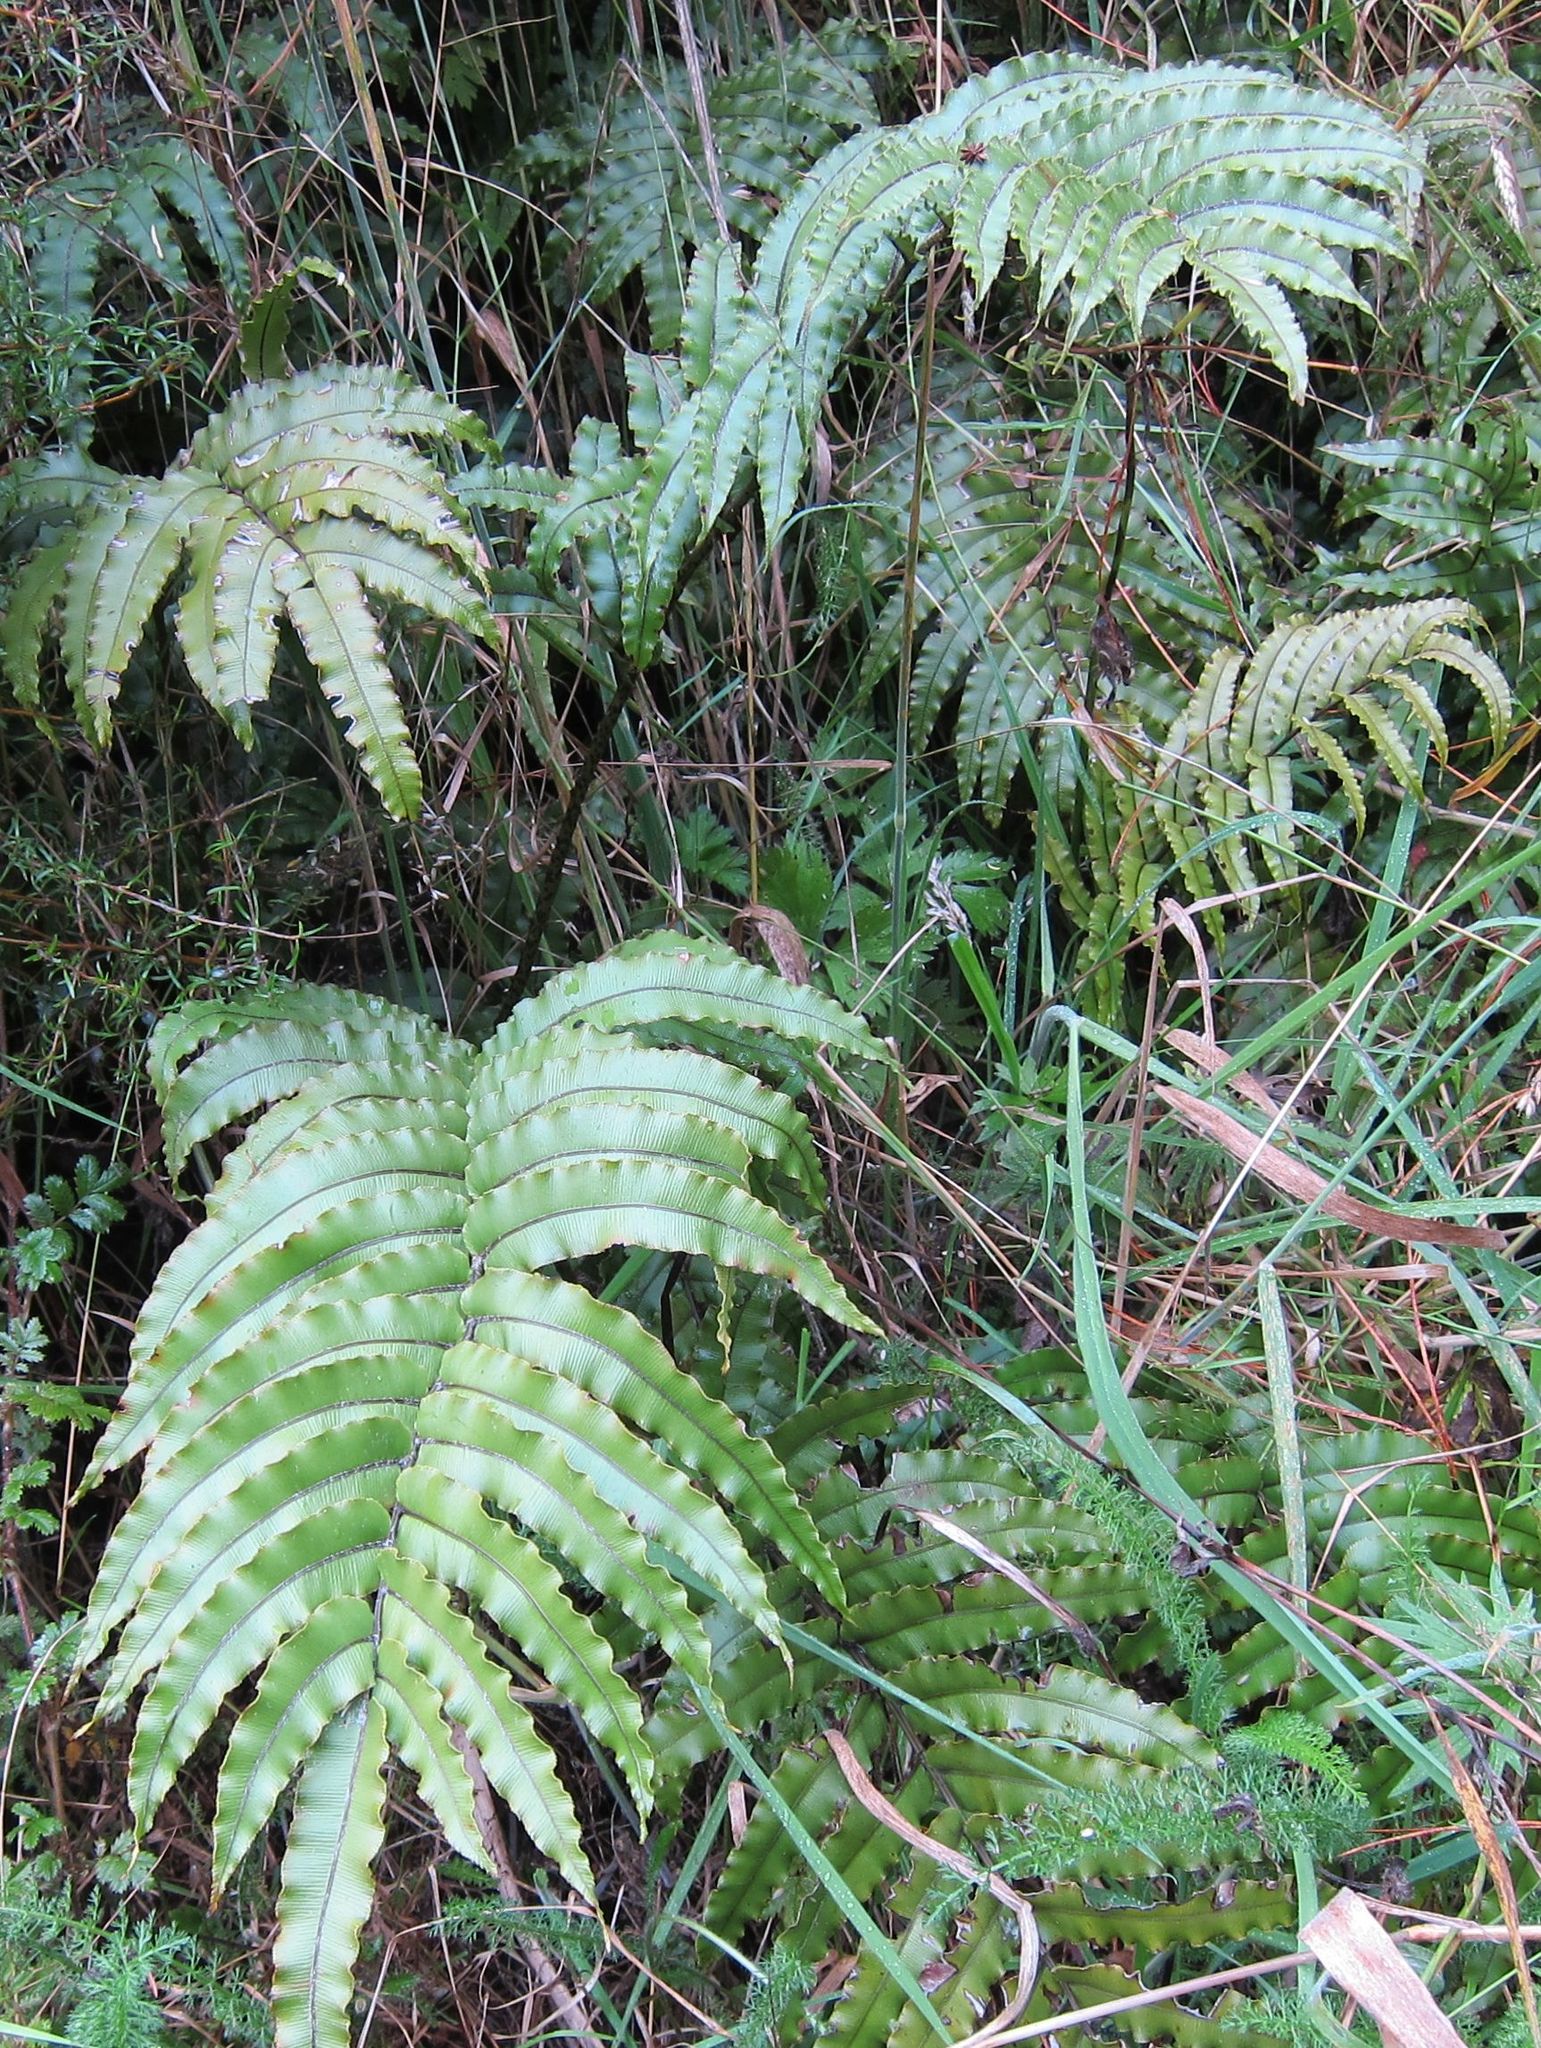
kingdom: Plantae
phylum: Tracheophyta
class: Polypodiopsida
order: Polypodiales
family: Blechnaceae
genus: Parablechnum
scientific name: Parablechnum montanum
